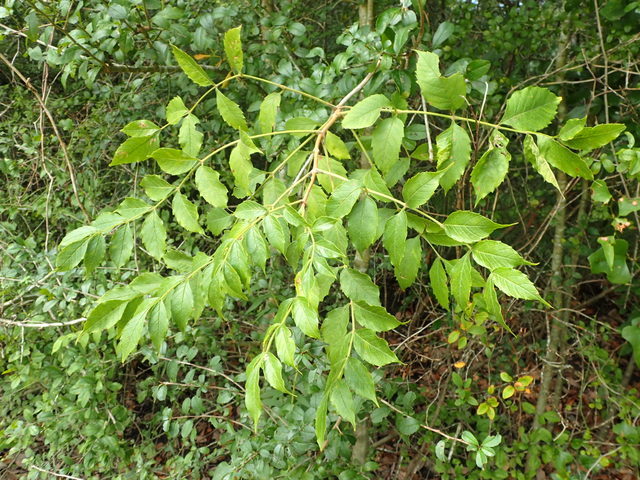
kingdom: Plantae
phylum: Tracheophyta
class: Magnoliopsida
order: Lamiales
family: Bignoniaceae
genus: Campsis
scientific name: Campsis radicans
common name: Trumpet-creeper
